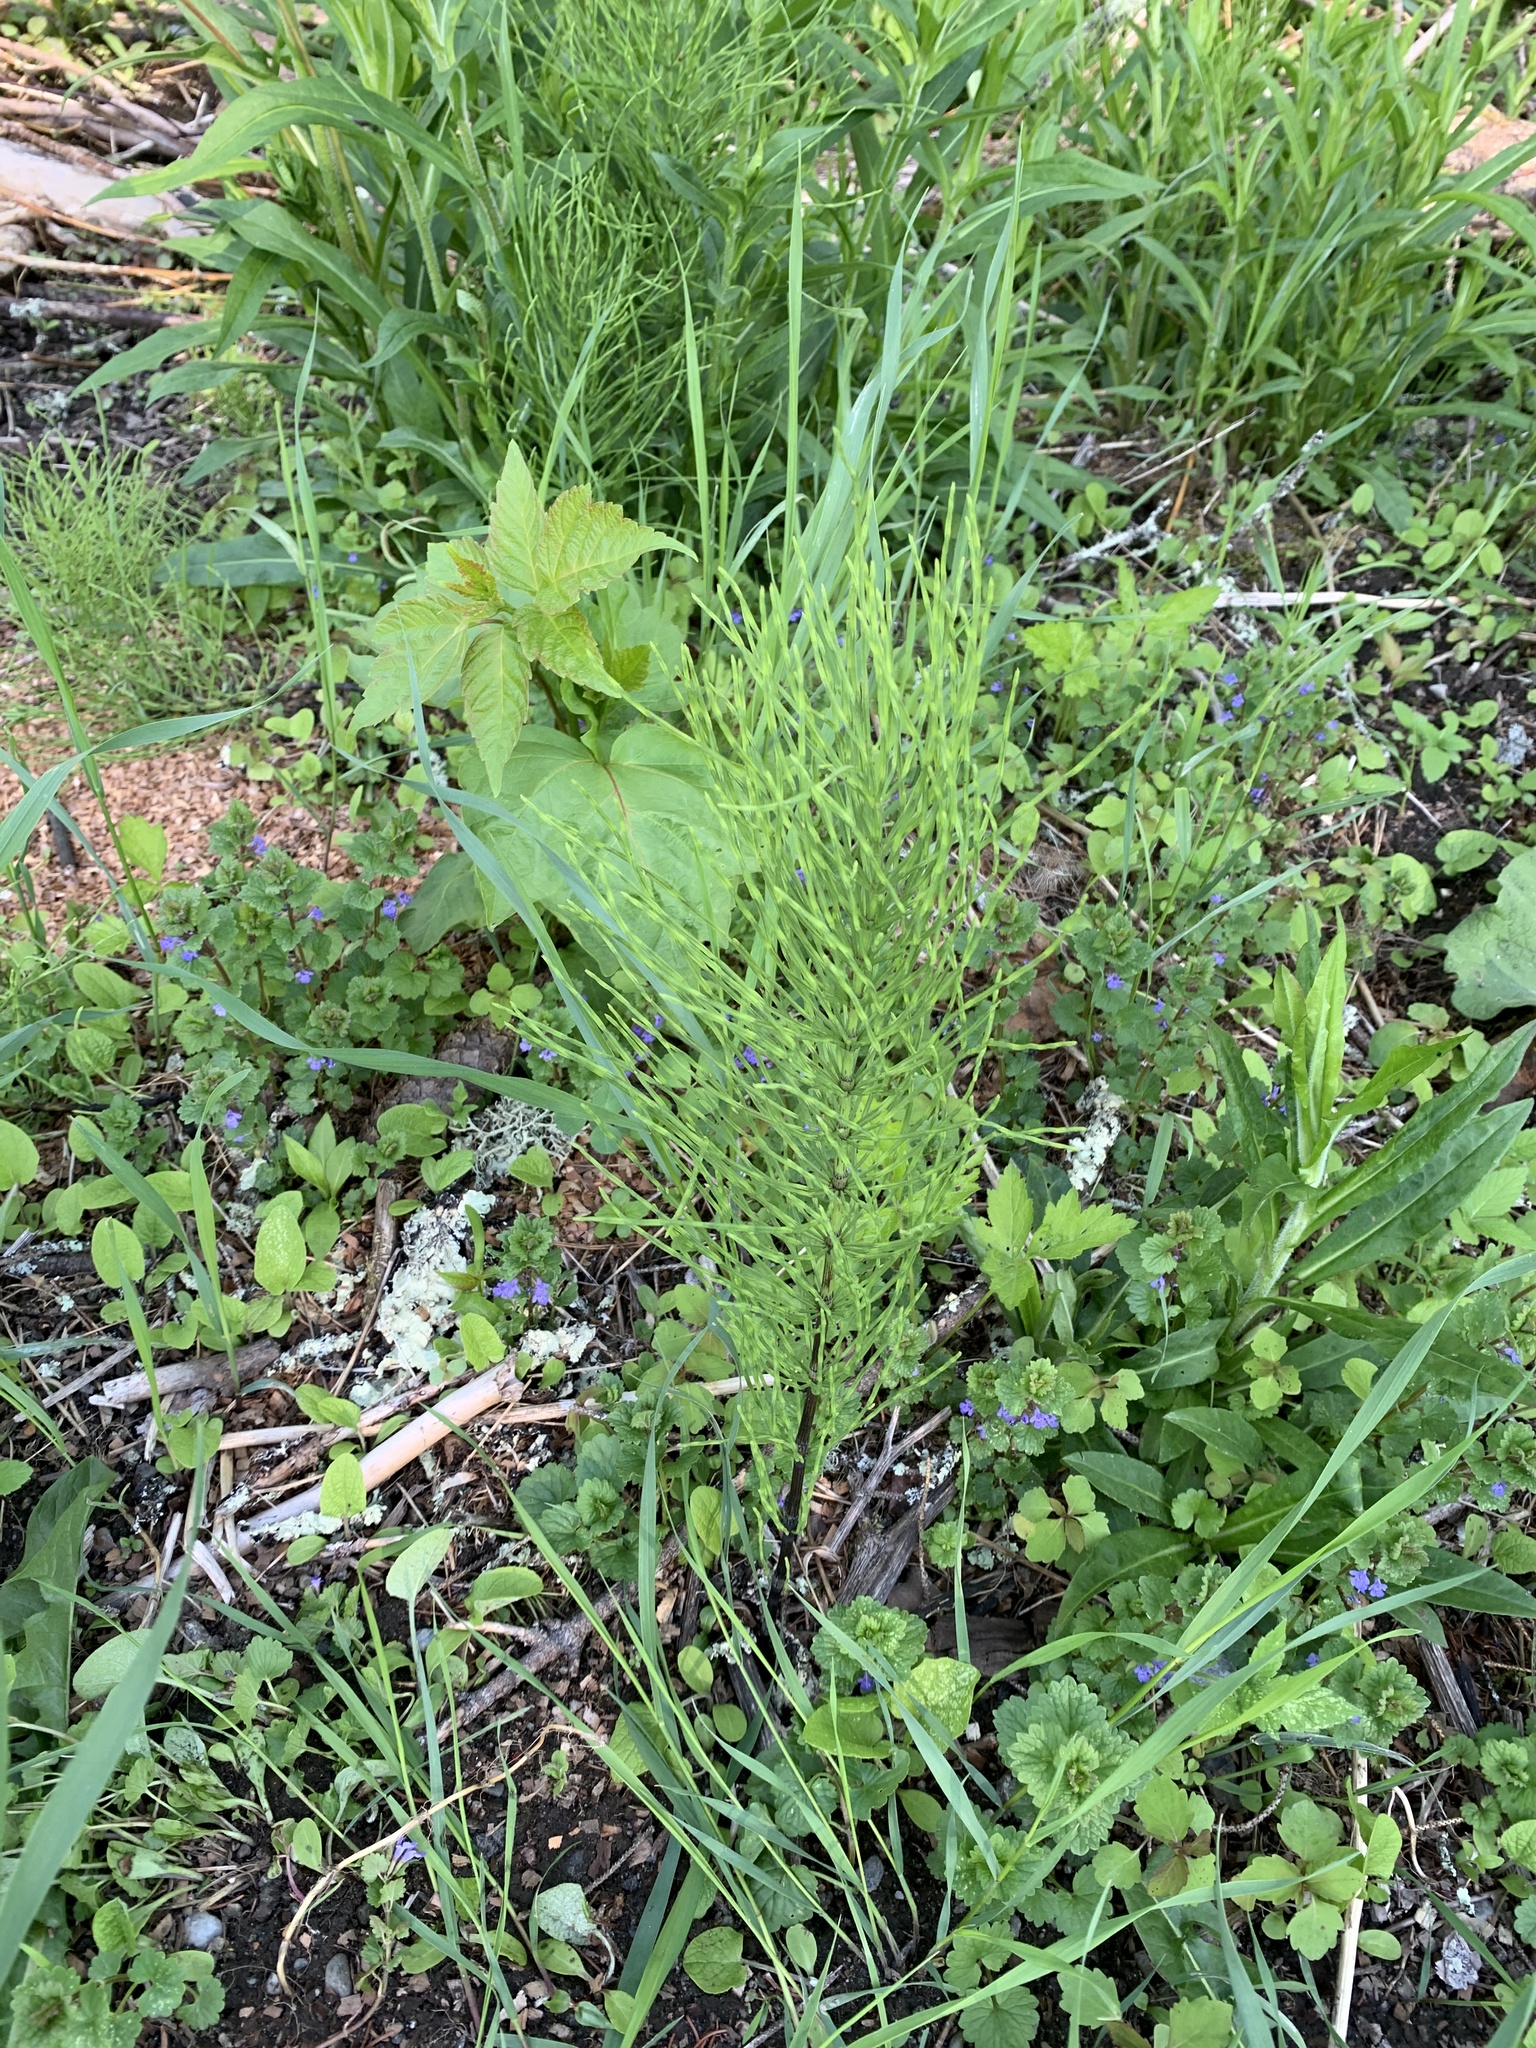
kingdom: Plantae
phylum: Tracheophyta
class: Polypodiopsida
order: Equisetales
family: Equisetaceae
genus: Equisetum
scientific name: Equisetum arvense
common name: Field horsetail
